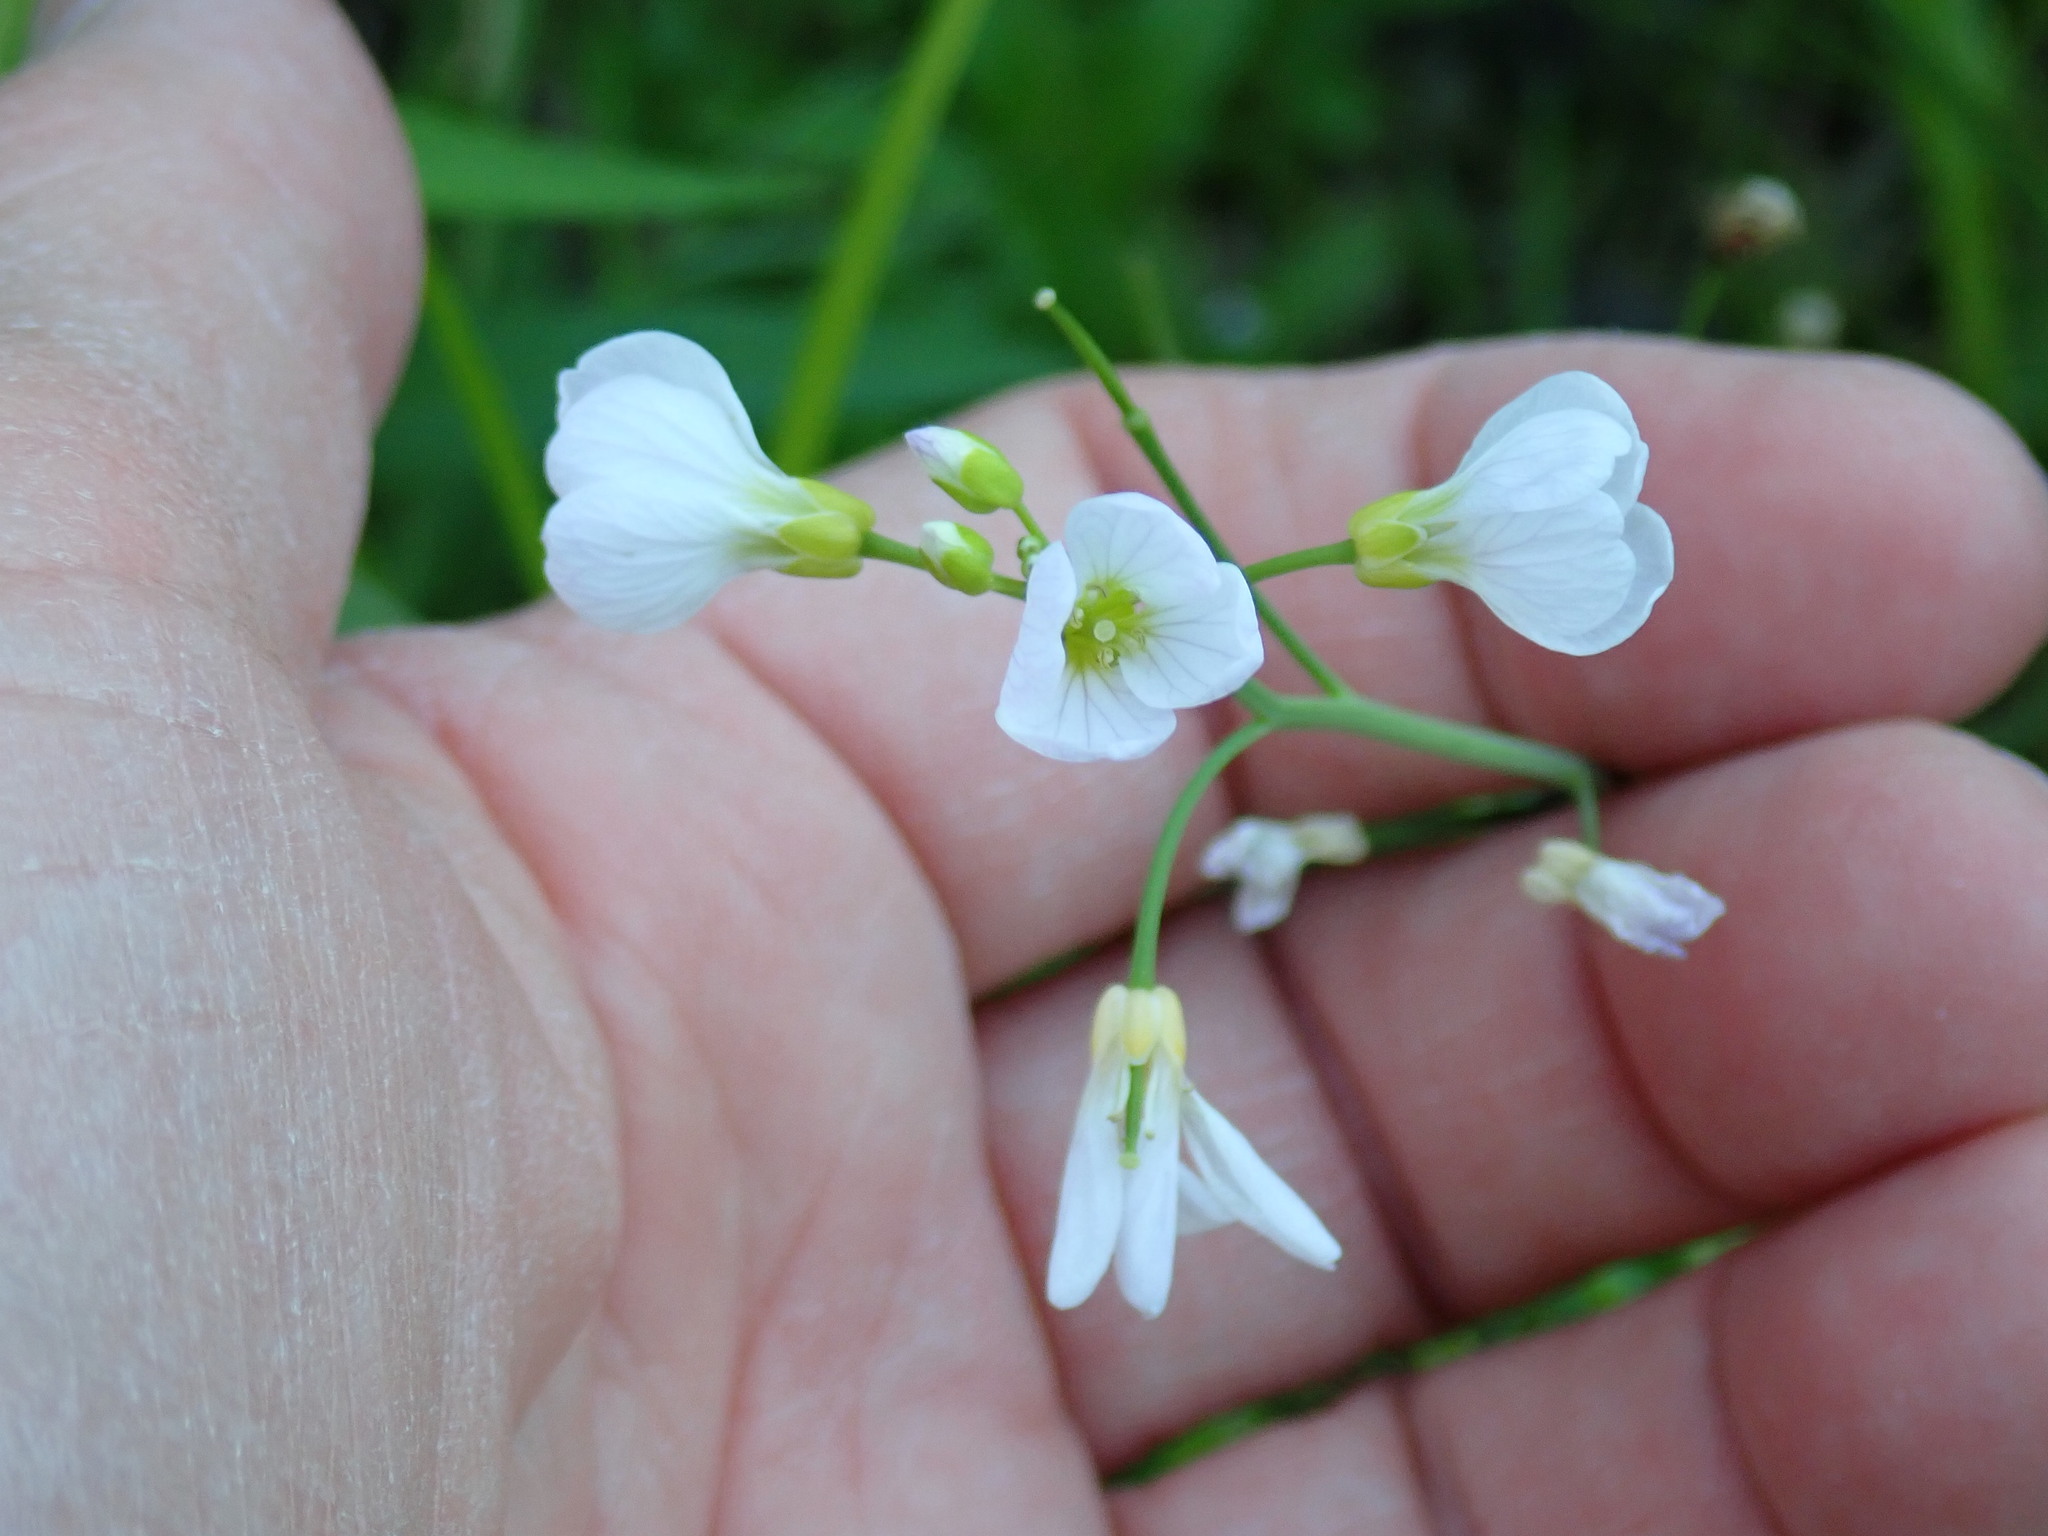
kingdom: Plantae
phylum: Tracheophyta
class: Magnoliopsida
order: Brassicales
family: Brassicaceae
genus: Cardamine
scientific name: Cardamine pratensis
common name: Cuckoo flower
